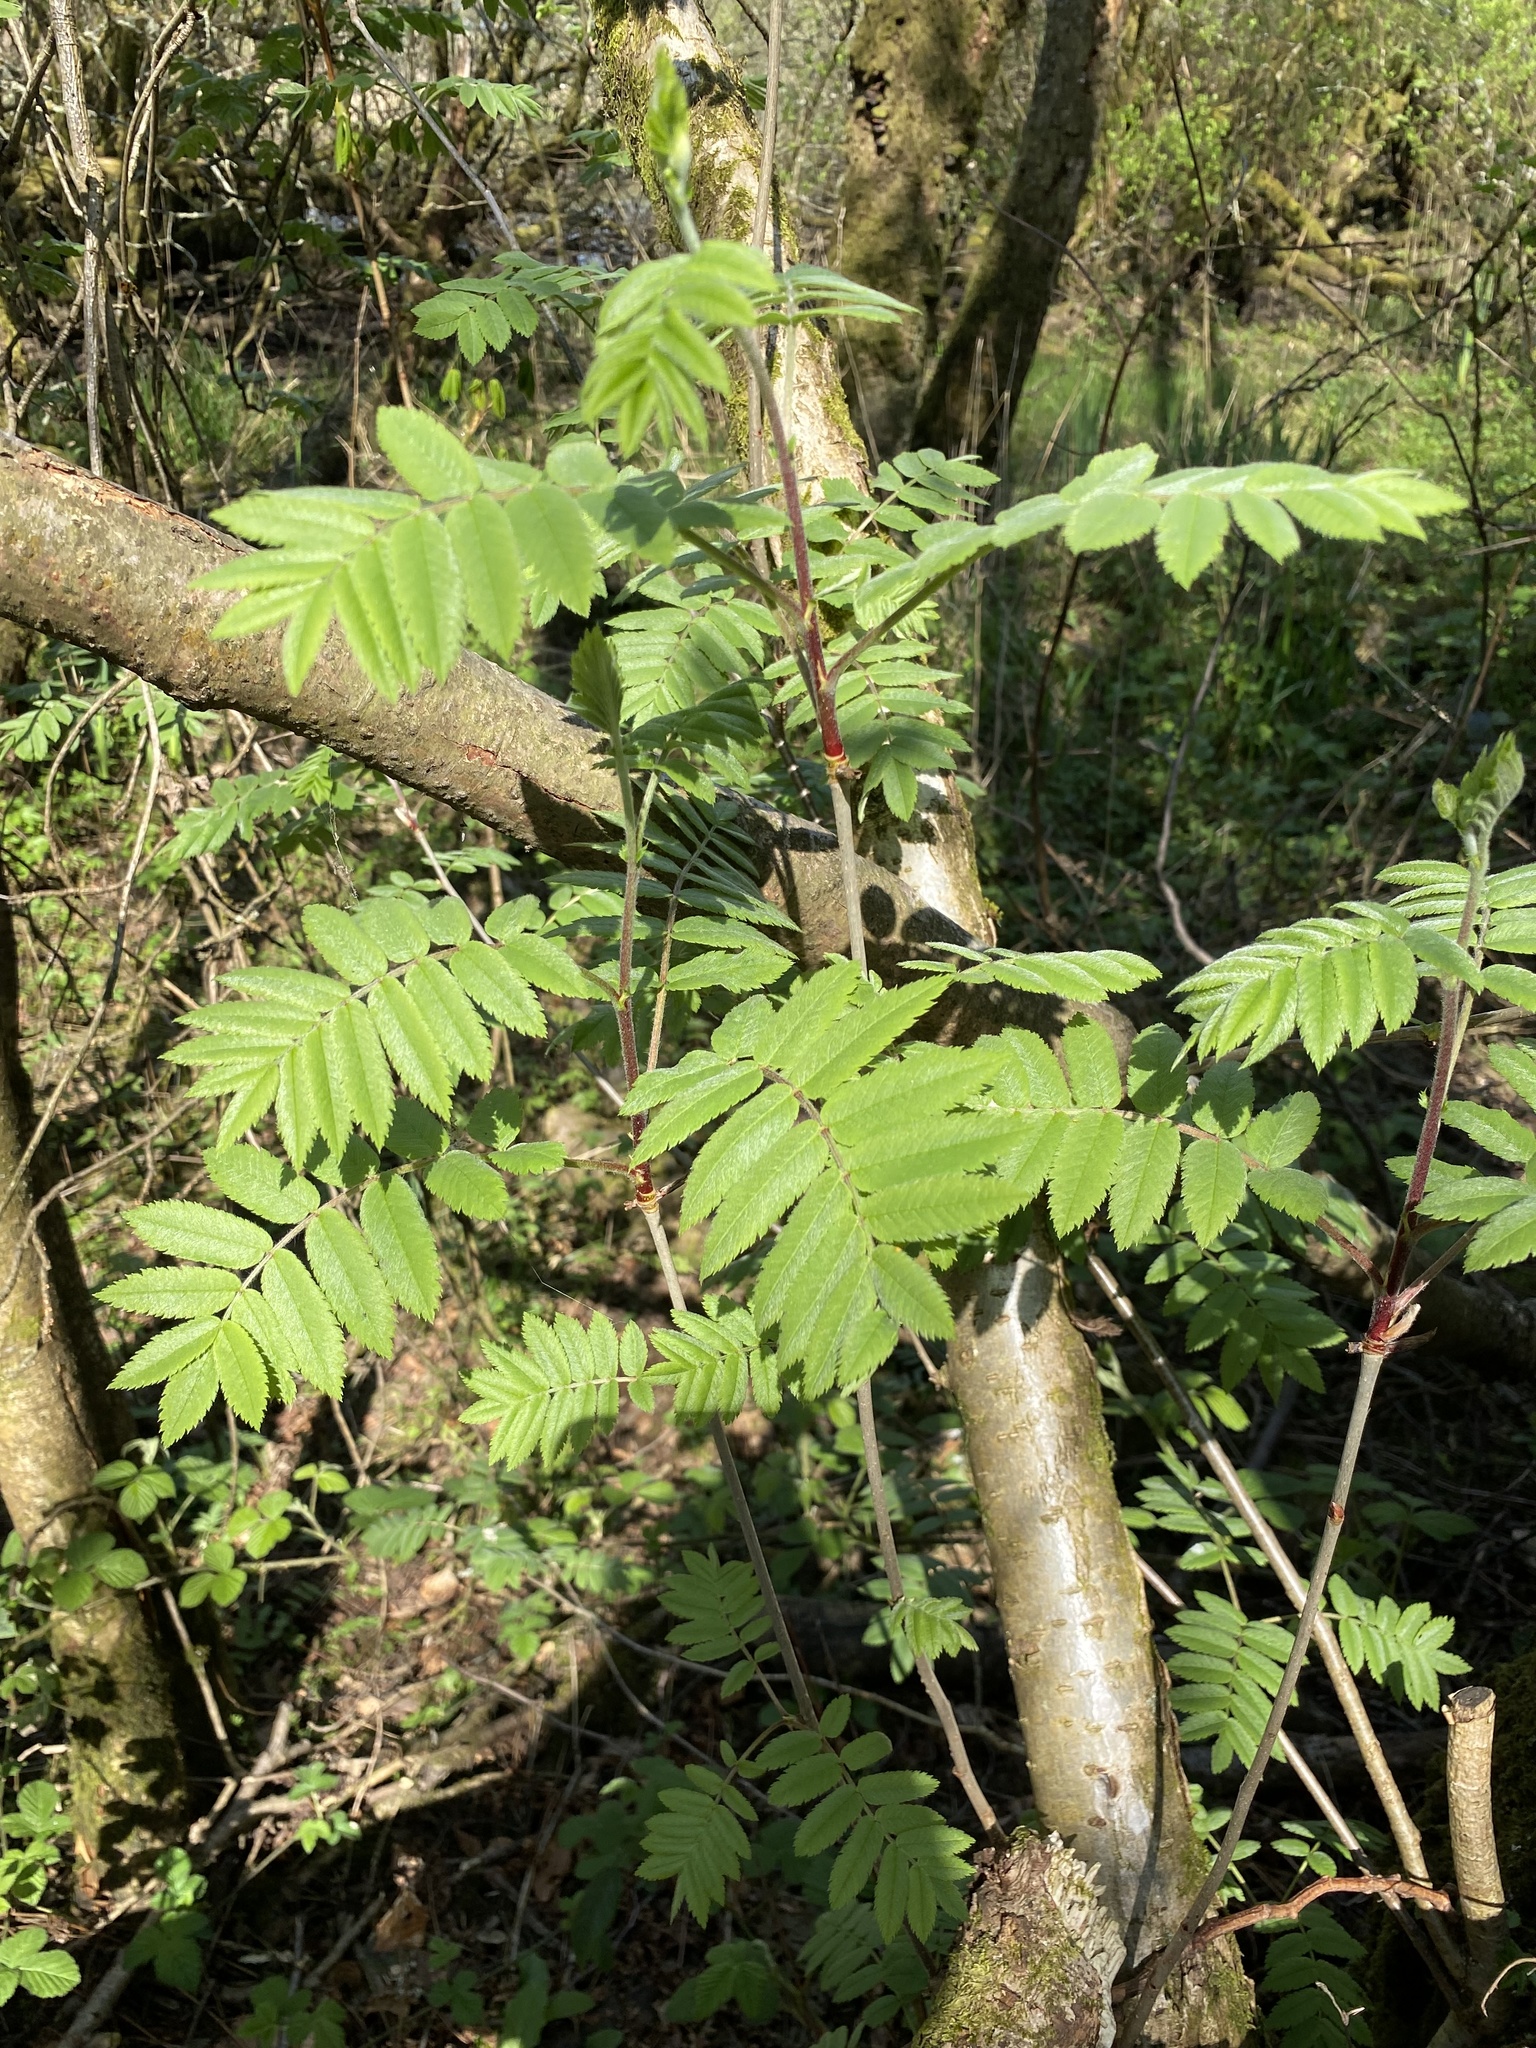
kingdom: Plantae
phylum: Tracheophyta
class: Magnoliopsida
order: Rosales
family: Rosaceae
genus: Sorbus
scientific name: Sorbus aucuparia
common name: Rowan
